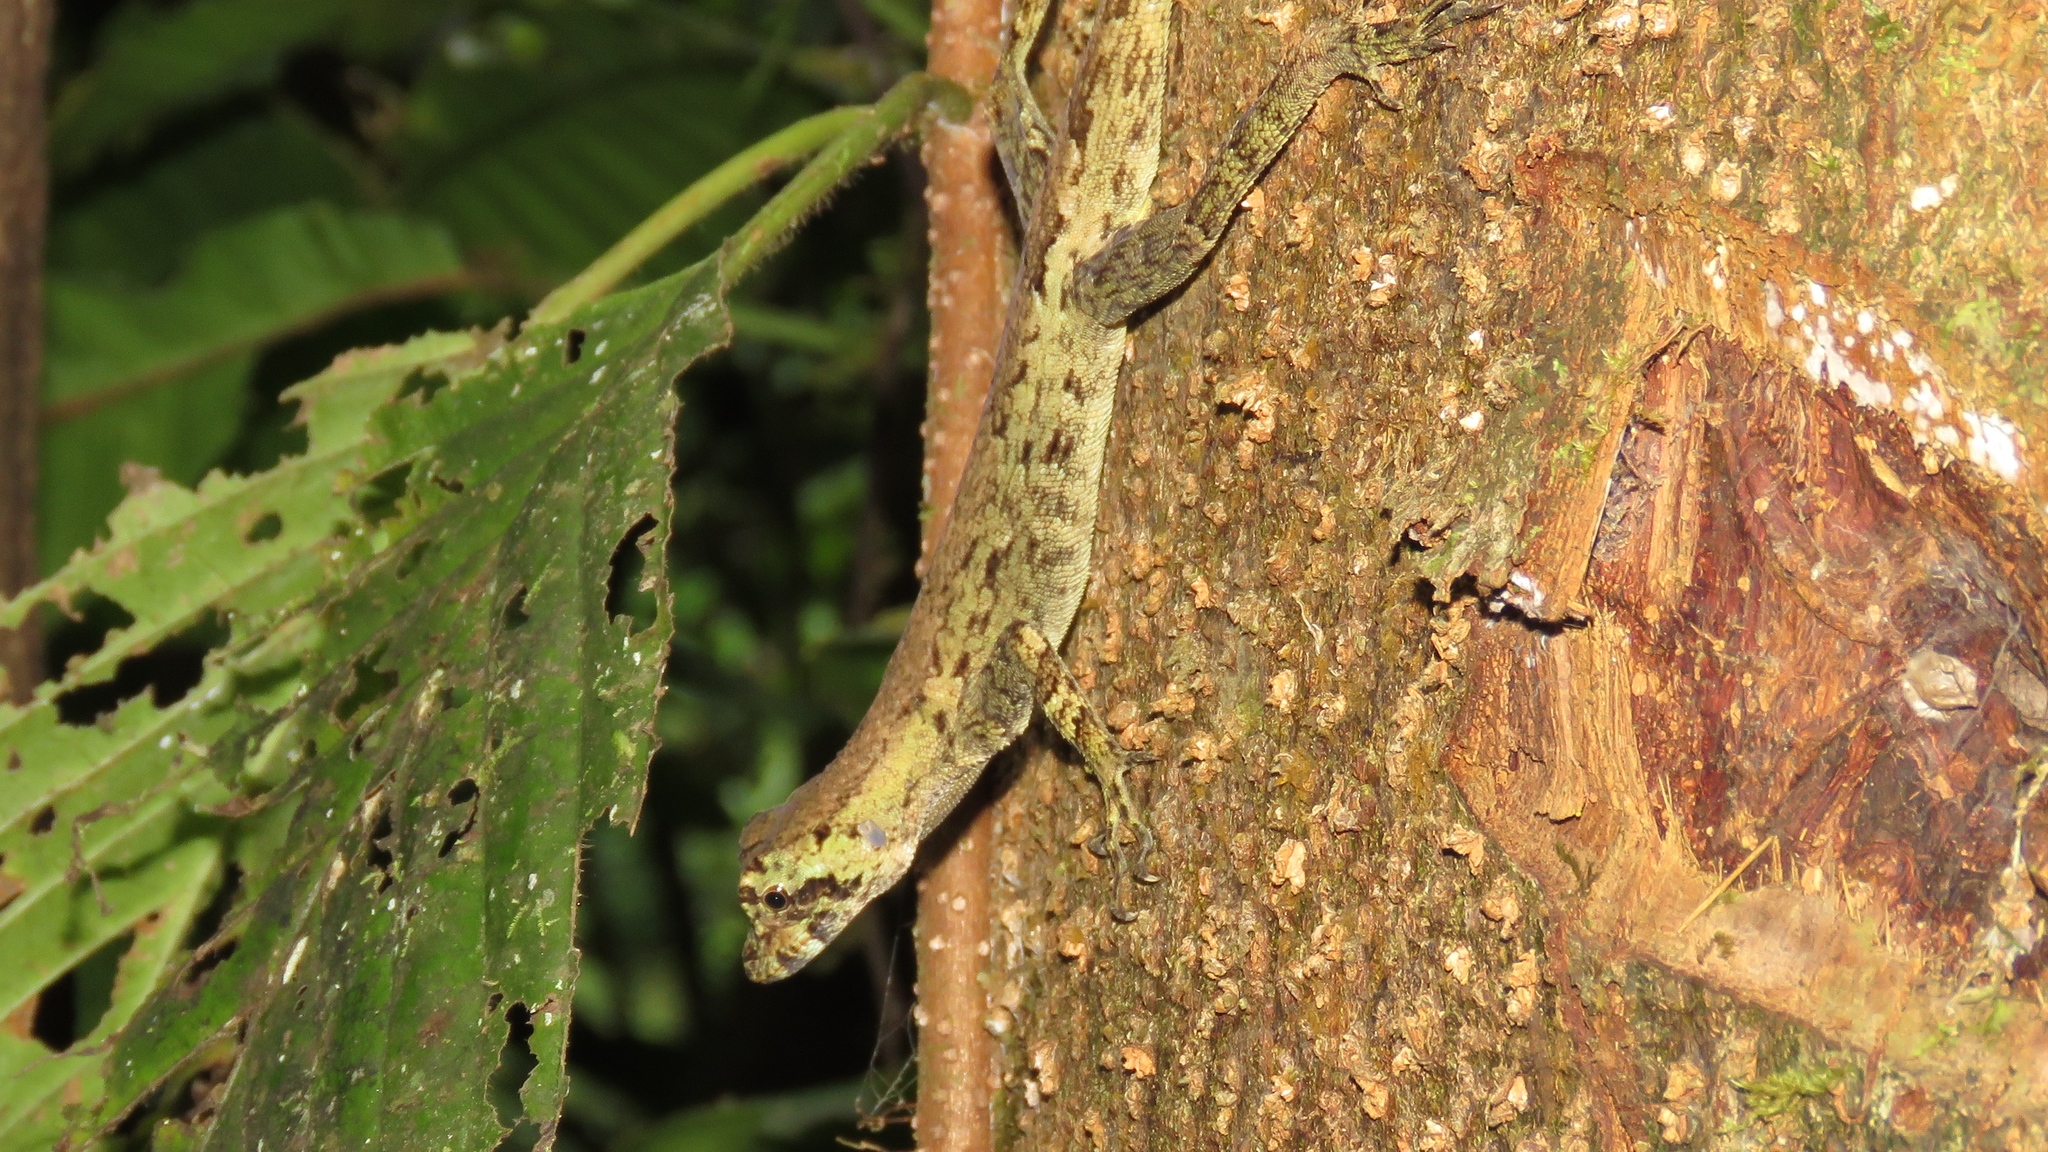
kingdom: Animalia
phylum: Chordata
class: Squamata
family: Dactyloidae
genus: Anolis
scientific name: Anolis capito
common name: Bighead anole
